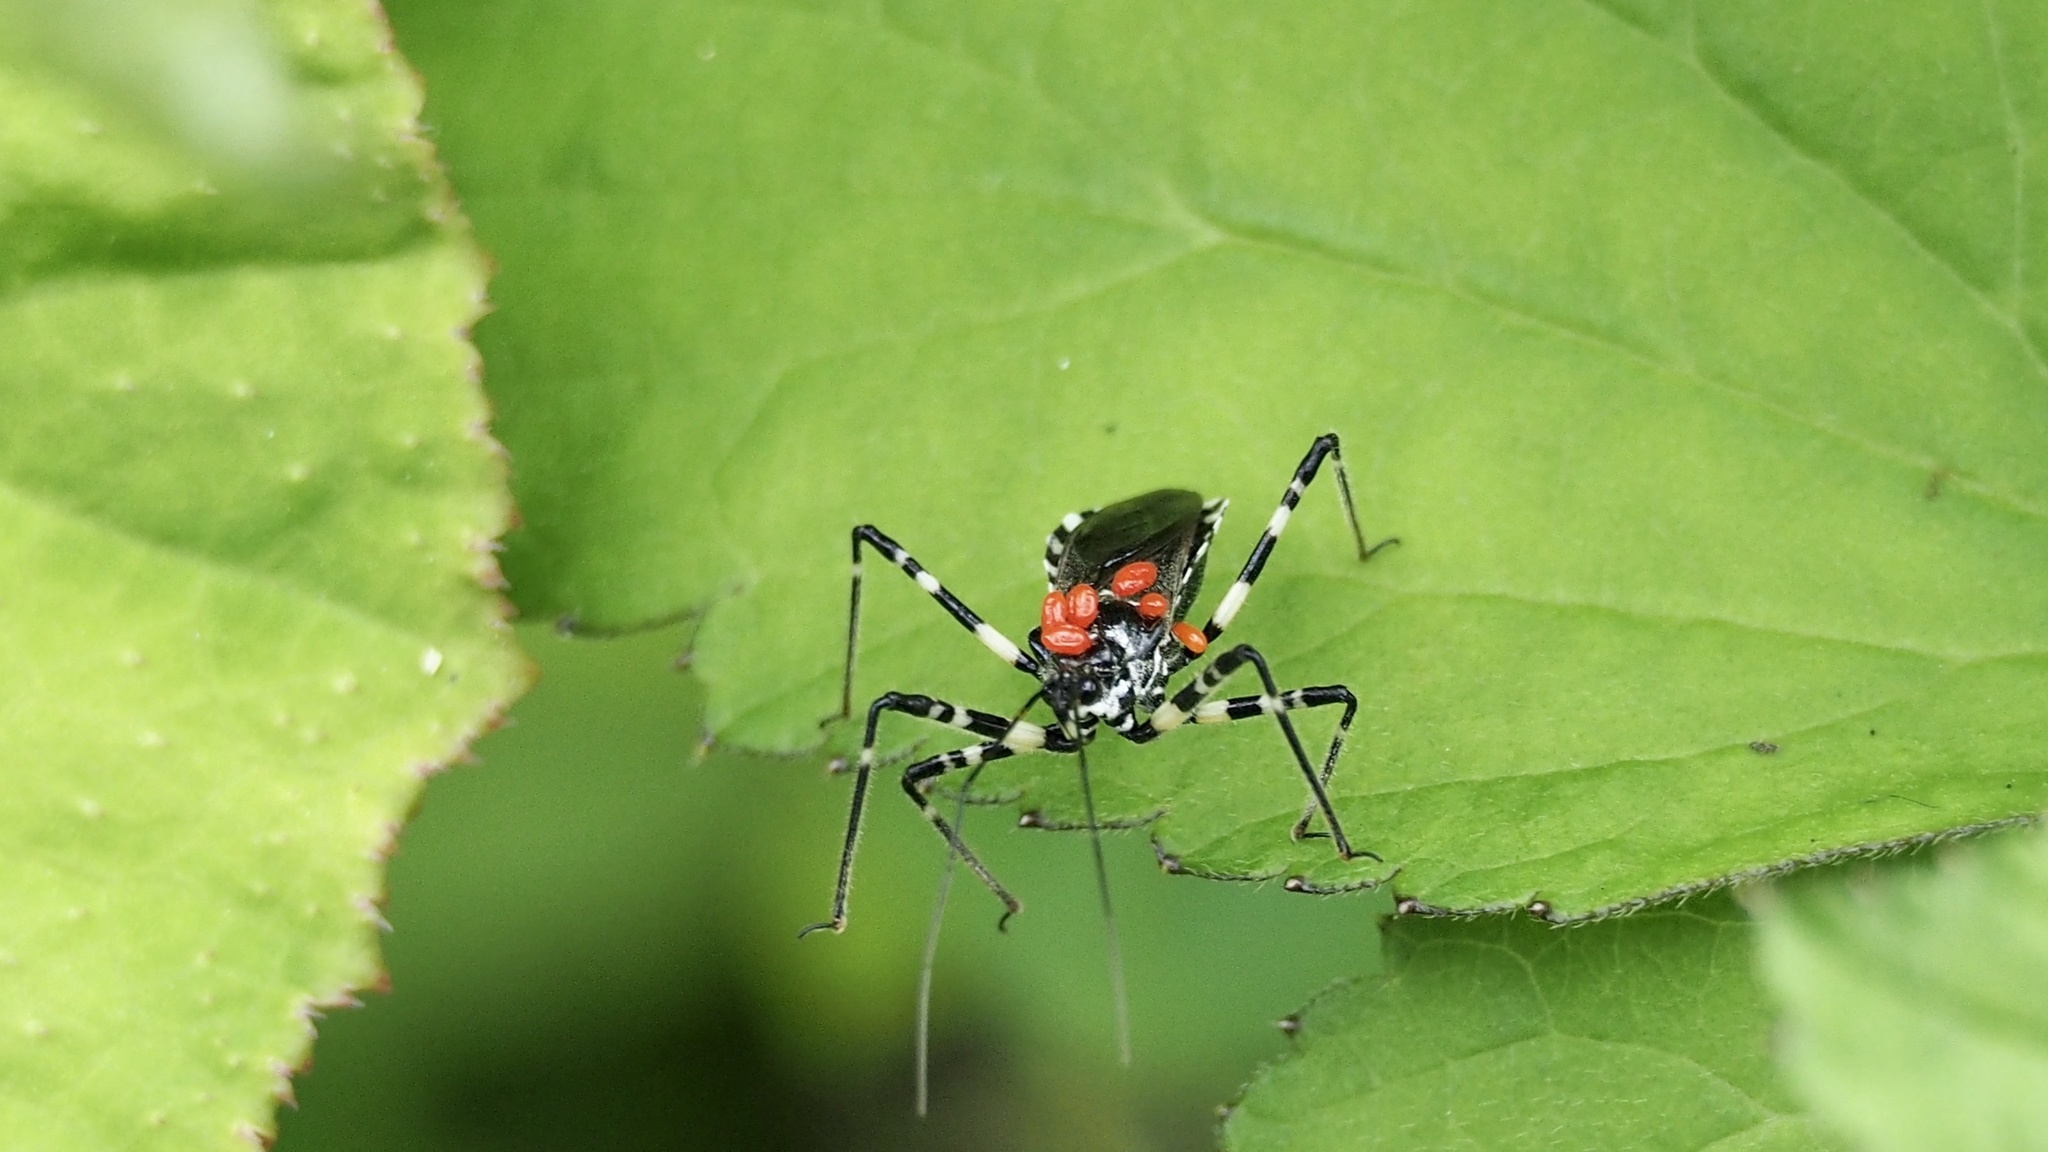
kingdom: Animalia
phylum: Arthropoda
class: Insecta
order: Hemiptera
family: Reduviidae
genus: Sphedanolestes
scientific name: Sphedanolestes impressicollis
